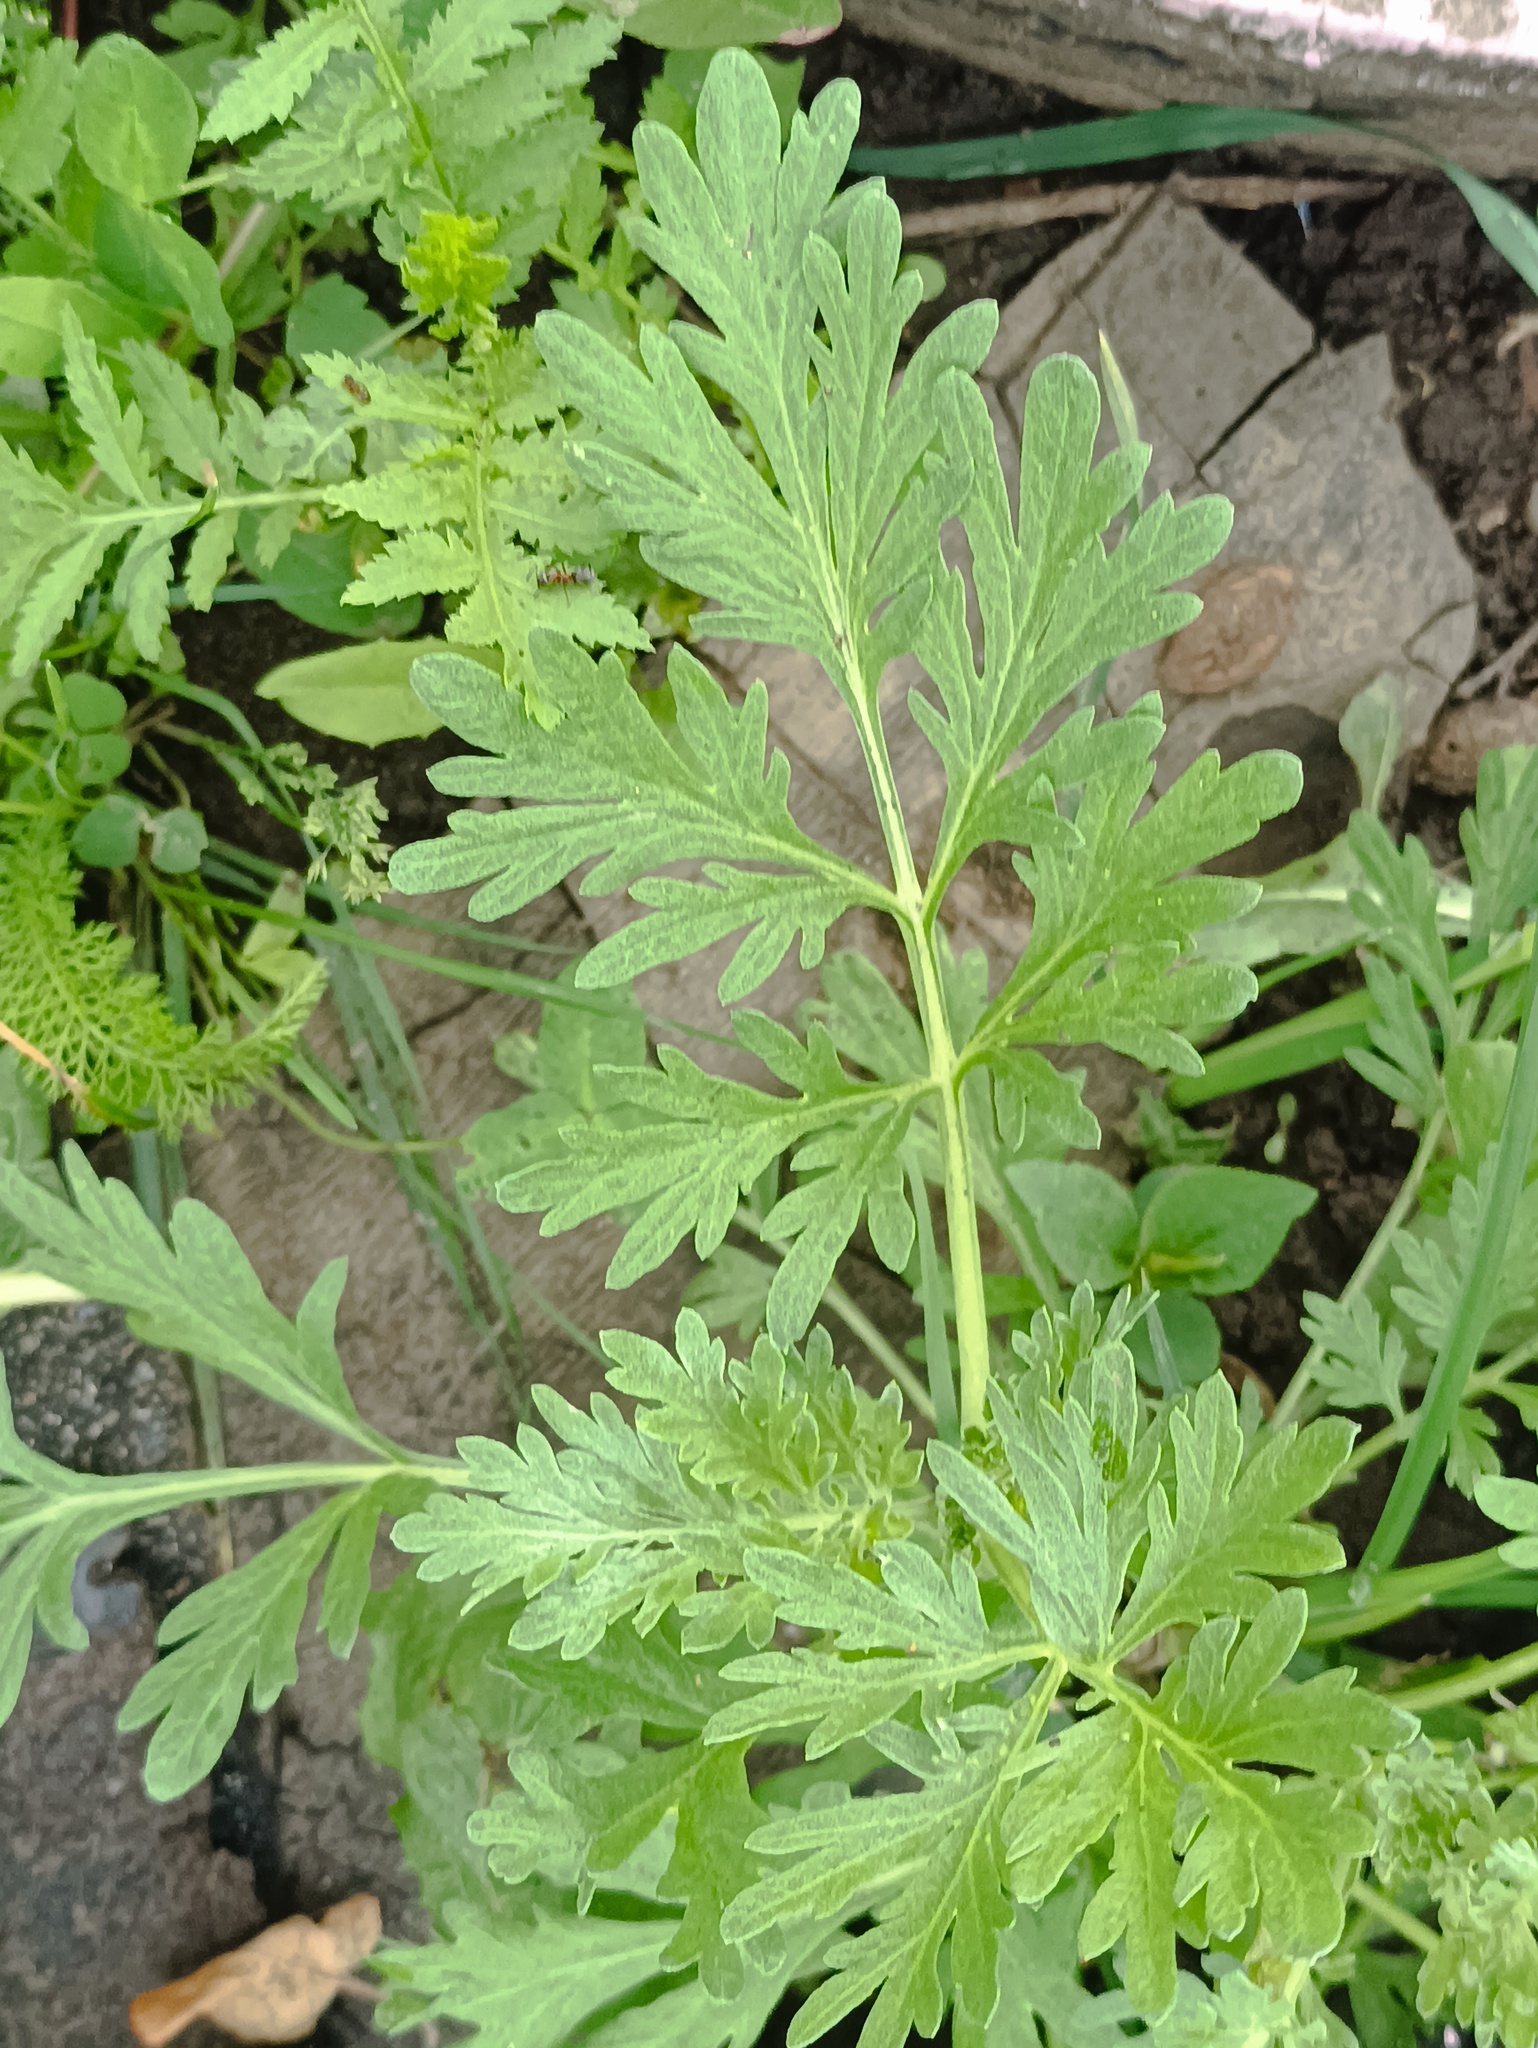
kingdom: Plantae
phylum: Tracheophyta
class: Magnoliopsida
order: Asterales
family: Asteraceae
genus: Artemisia
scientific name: Artemisia absinthium
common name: Wormwood
